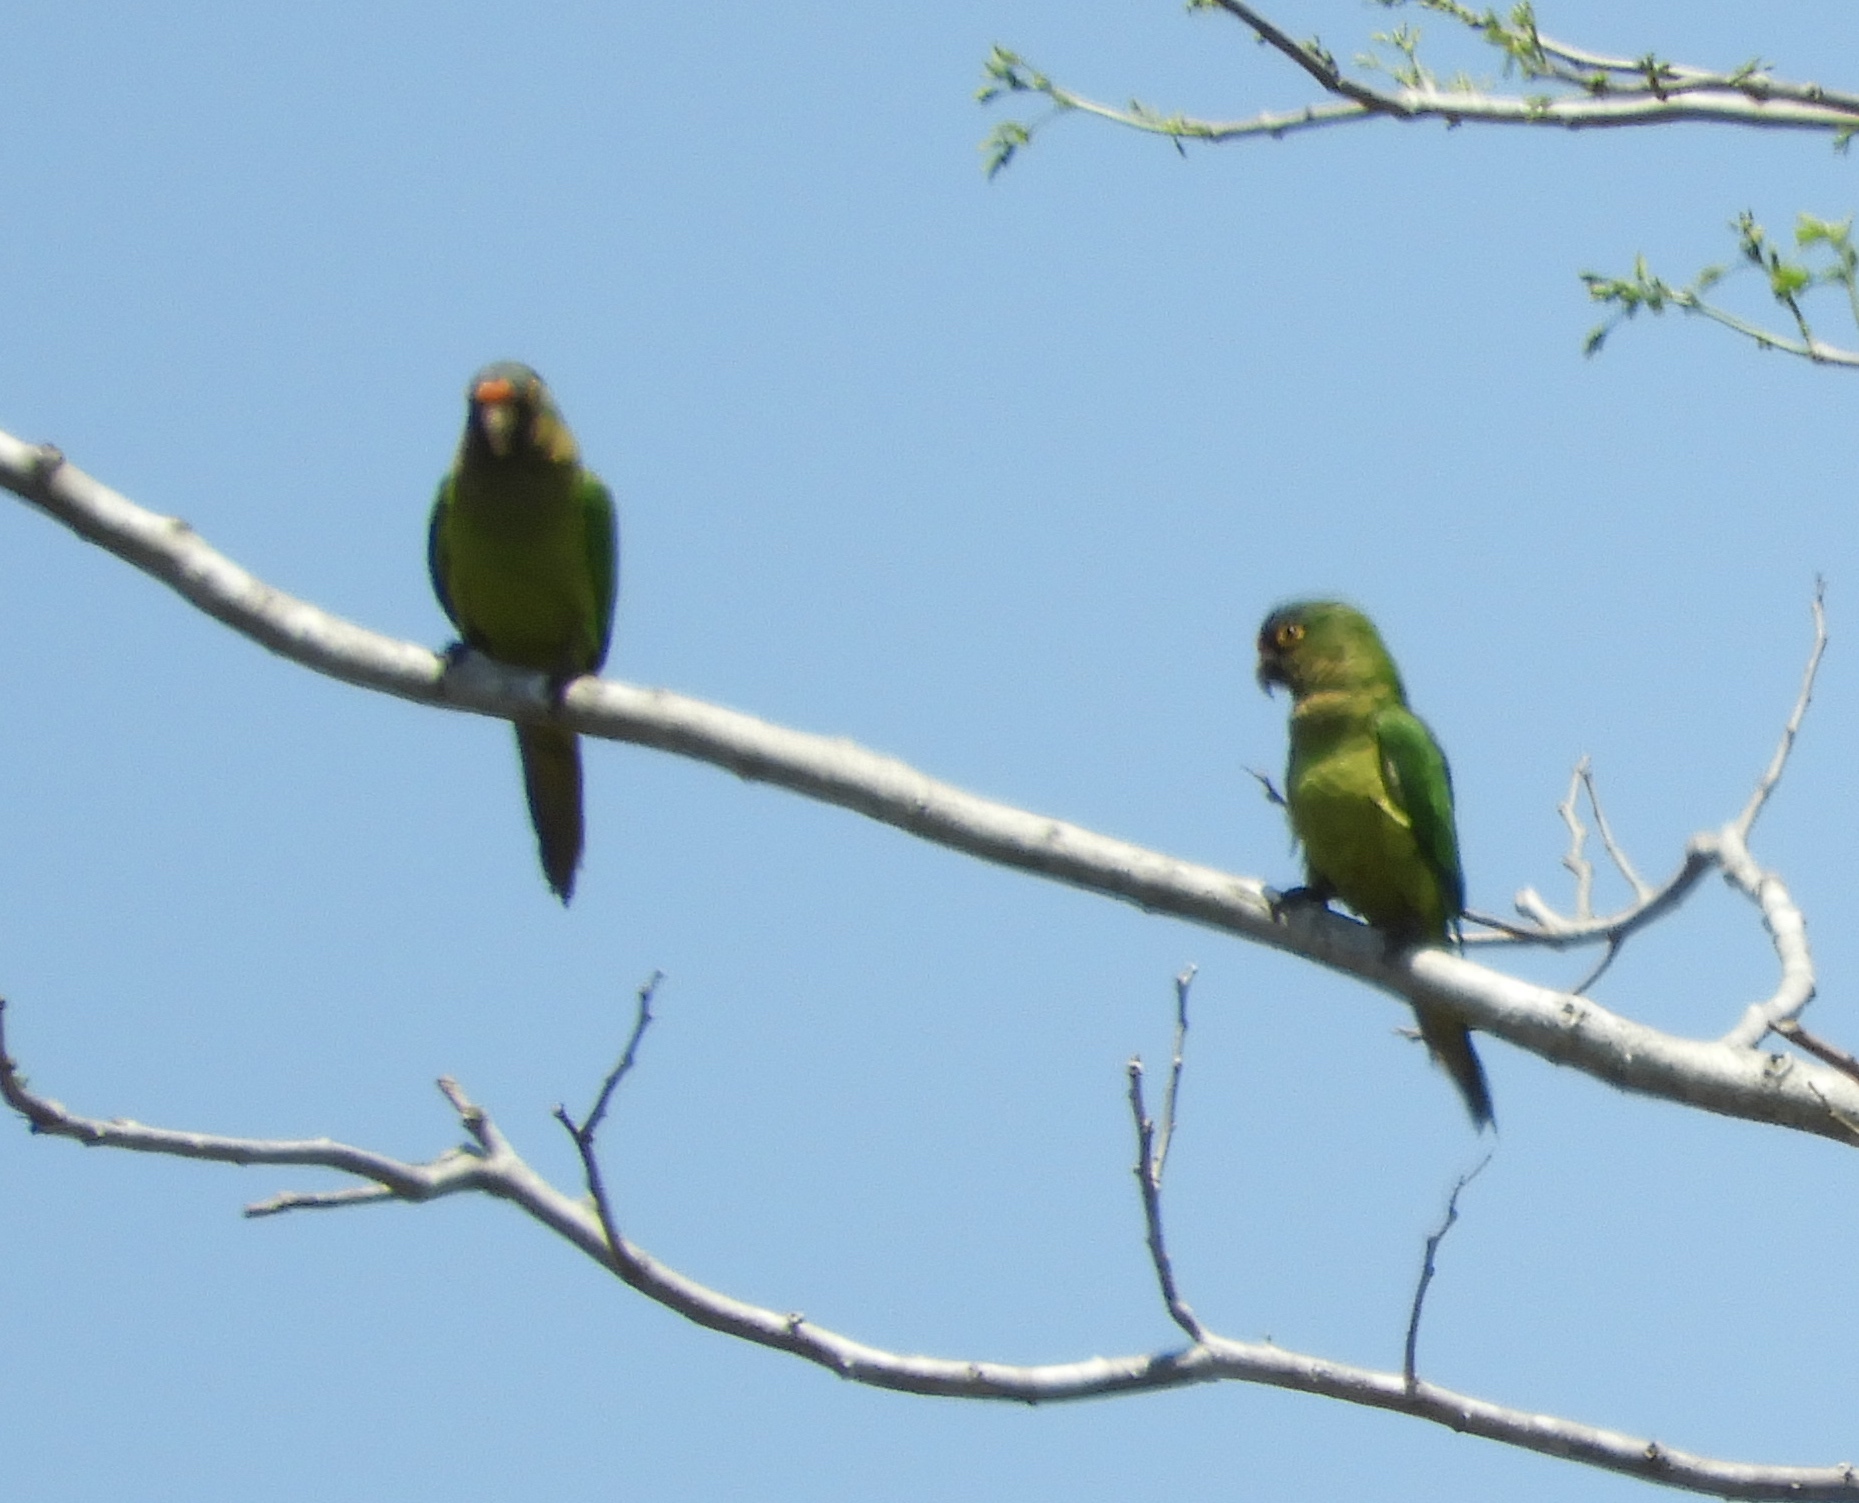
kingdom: Animalia
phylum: Chordata
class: Aves
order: Psittaciformes
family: Psittacidae
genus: Aratinga
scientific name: Aratinga canicularis
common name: Orange-fronted parakeet
